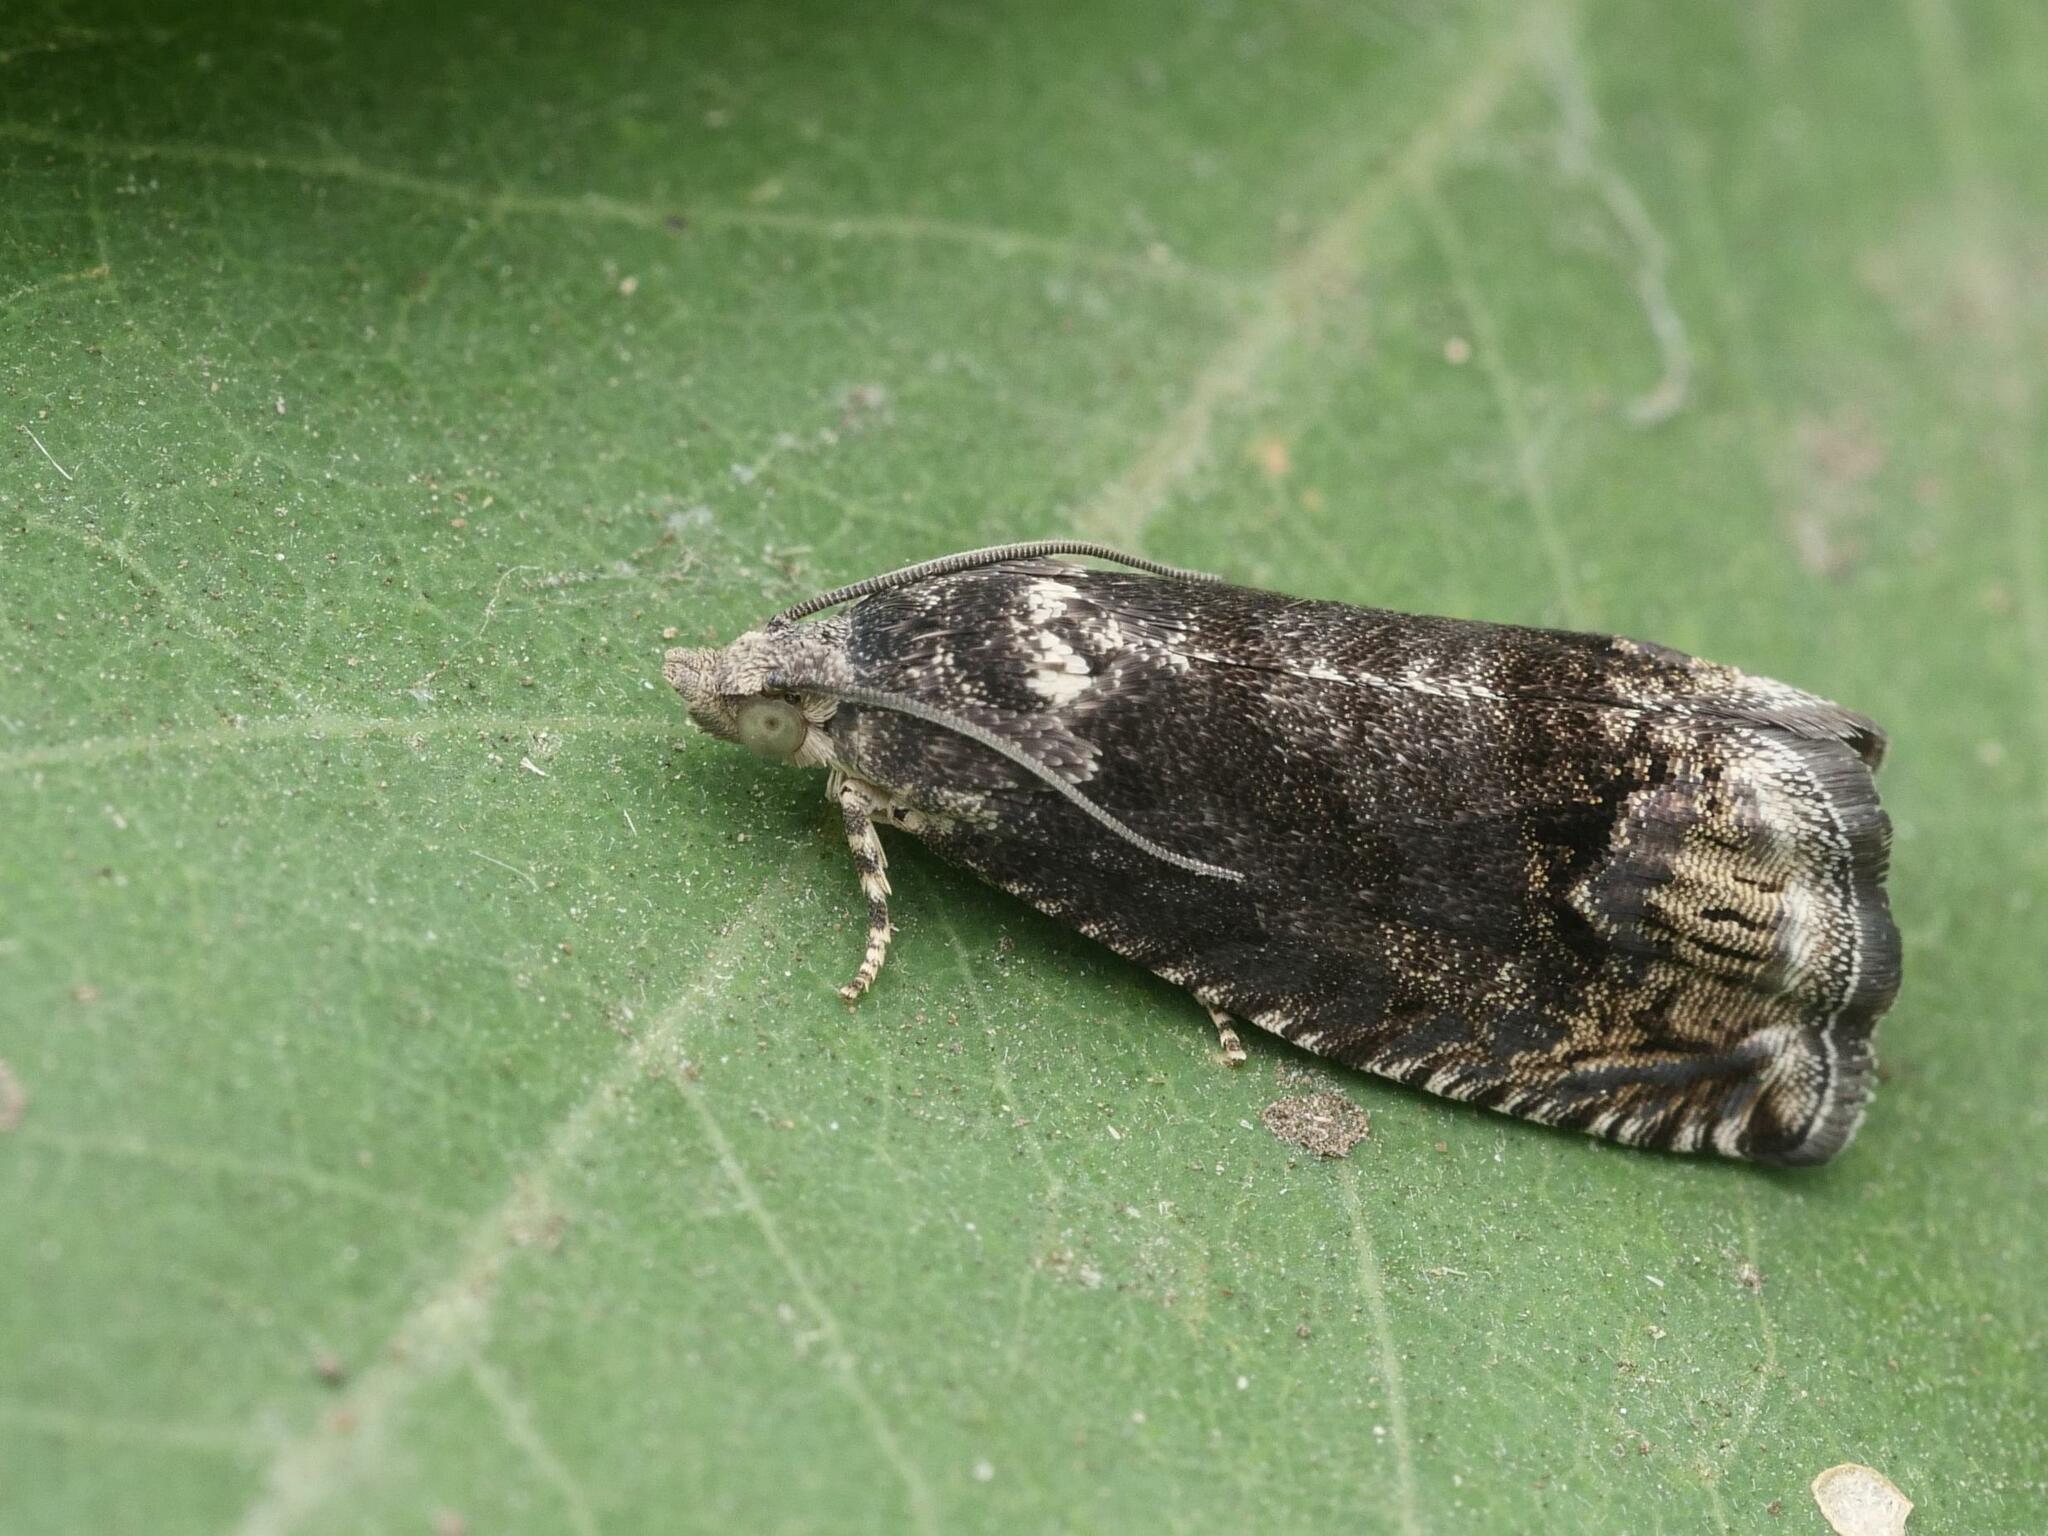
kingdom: Animalia
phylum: Arthropoda
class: Insecta
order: Lepidoptera
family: Tortricidae
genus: Cydia
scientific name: Cydia splendana
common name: De: kastanienwickler, eichenwickler es: oruga de la castaña fr: carpocapse des châtaignes it: cidia o tortrice tardiva delle castagne pt: bichado das castanhas gb: acorn moth, chestnut fruit tortrix
